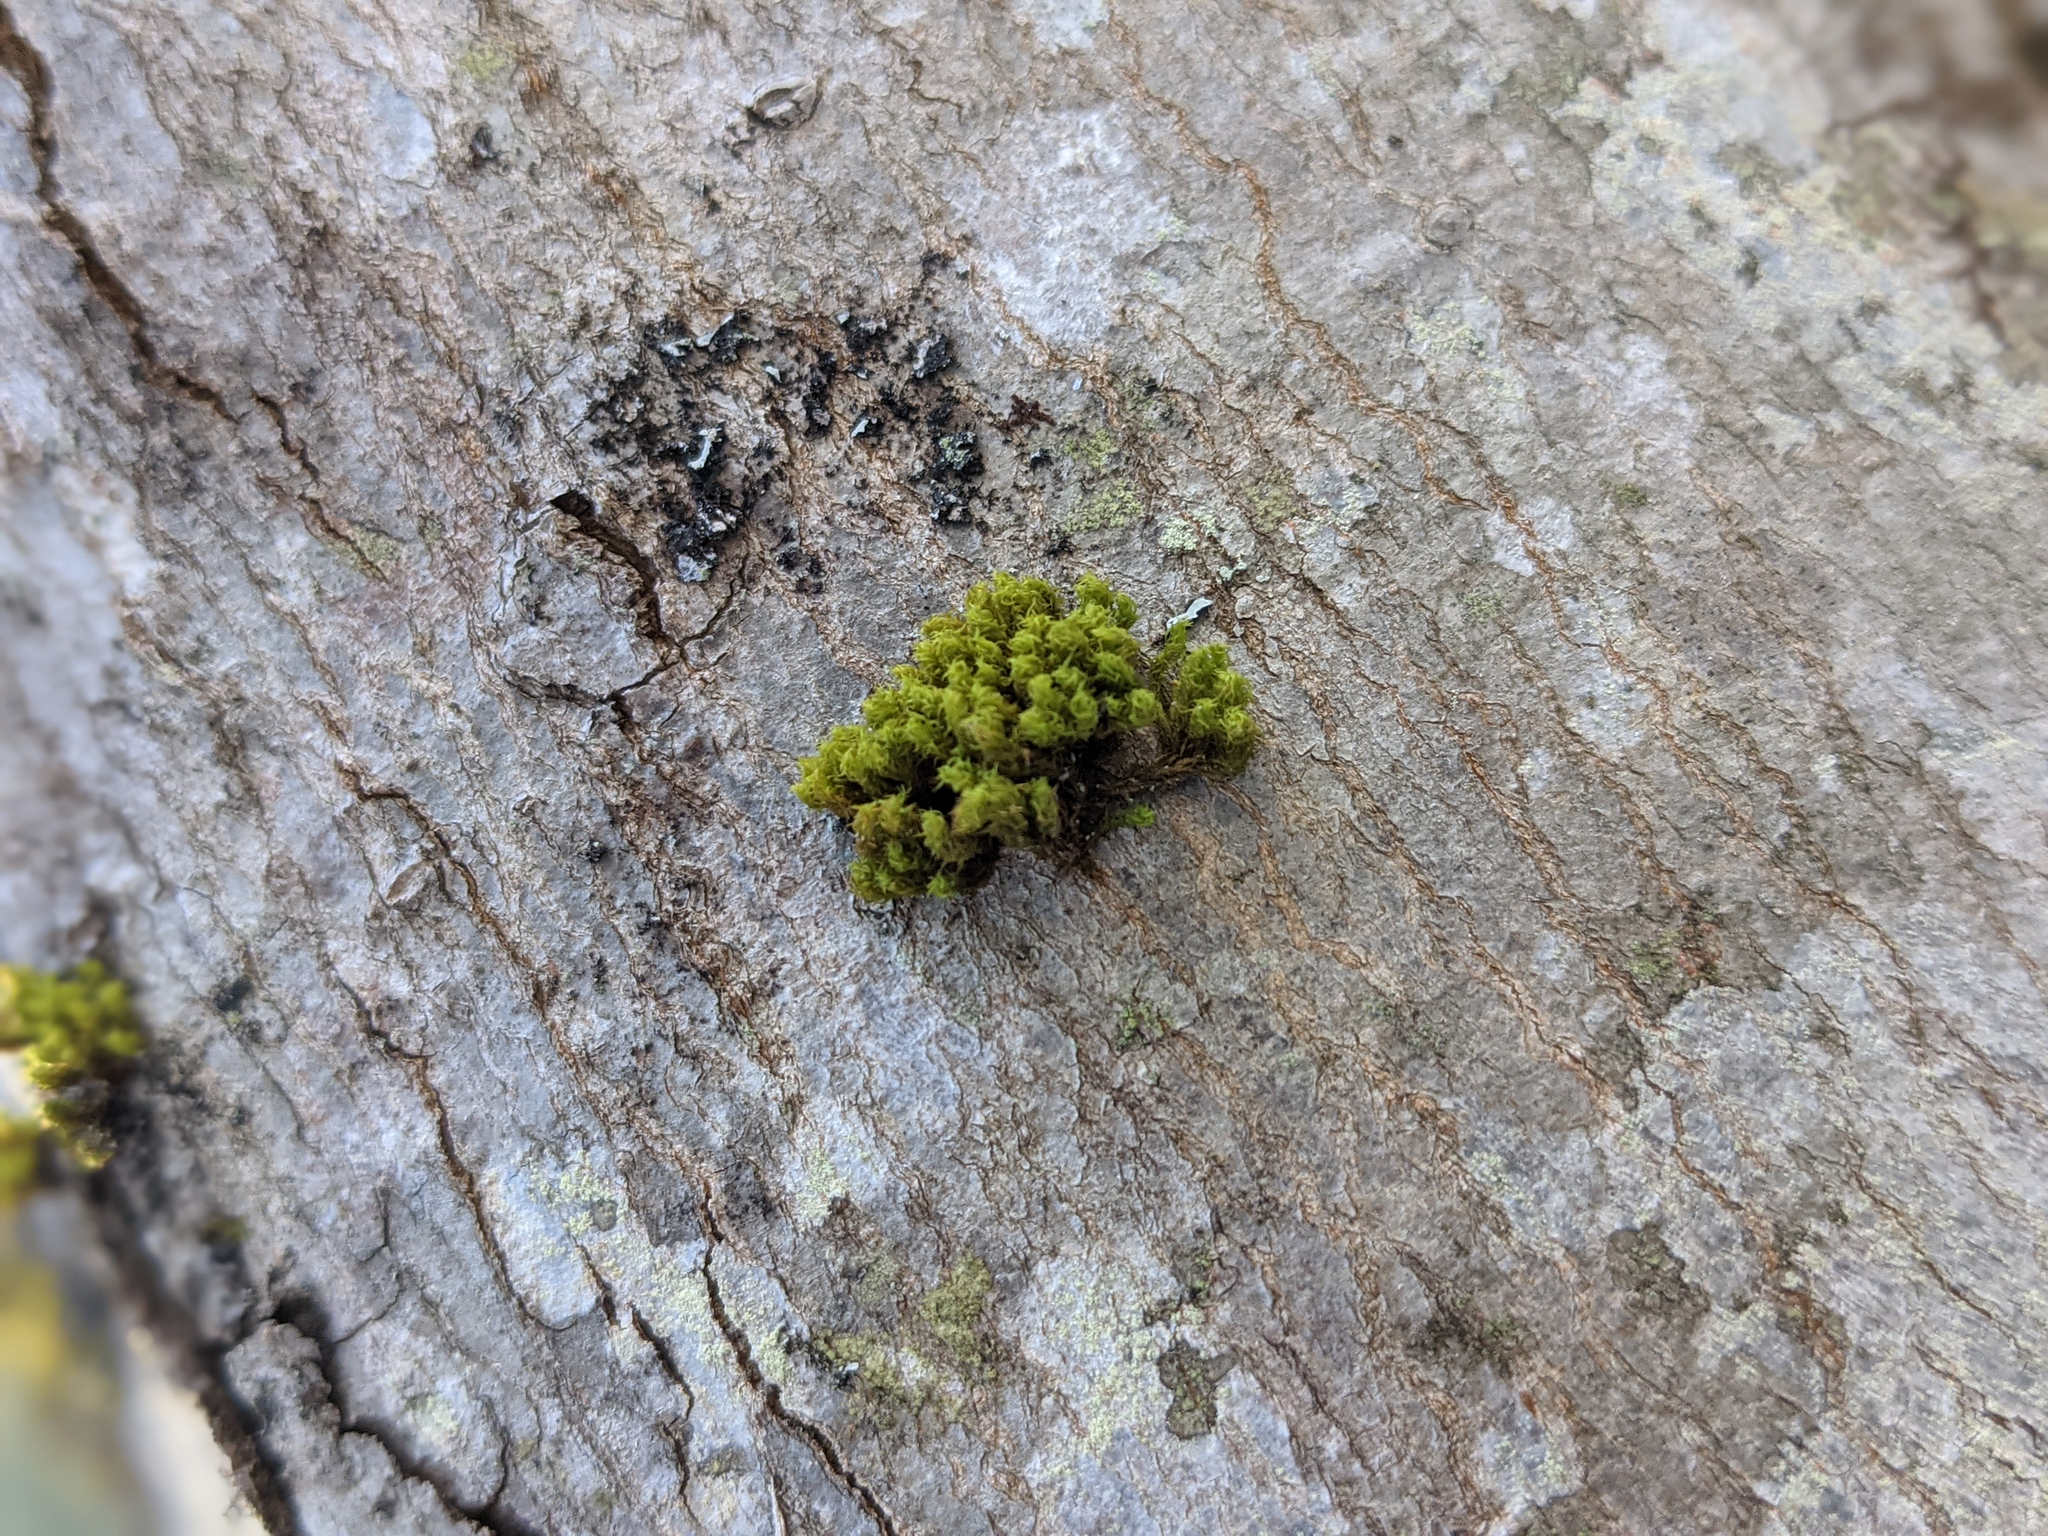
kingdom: Plantae
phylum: Bryophyta
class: Bryopsida
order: Orthotrichales
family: Orthotrichaceae
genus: Ulota
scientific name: Ulota crispa
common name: Crisped pincushion moss
